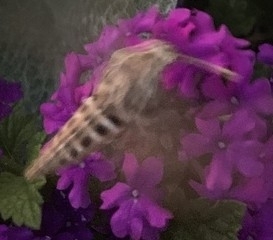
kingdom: Animalia
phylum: Arthropoda
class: Insecta
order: Lepidoptera
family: Sphingidae
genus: Hyles
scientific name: Hyles lineata
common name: White-lined sphinx
